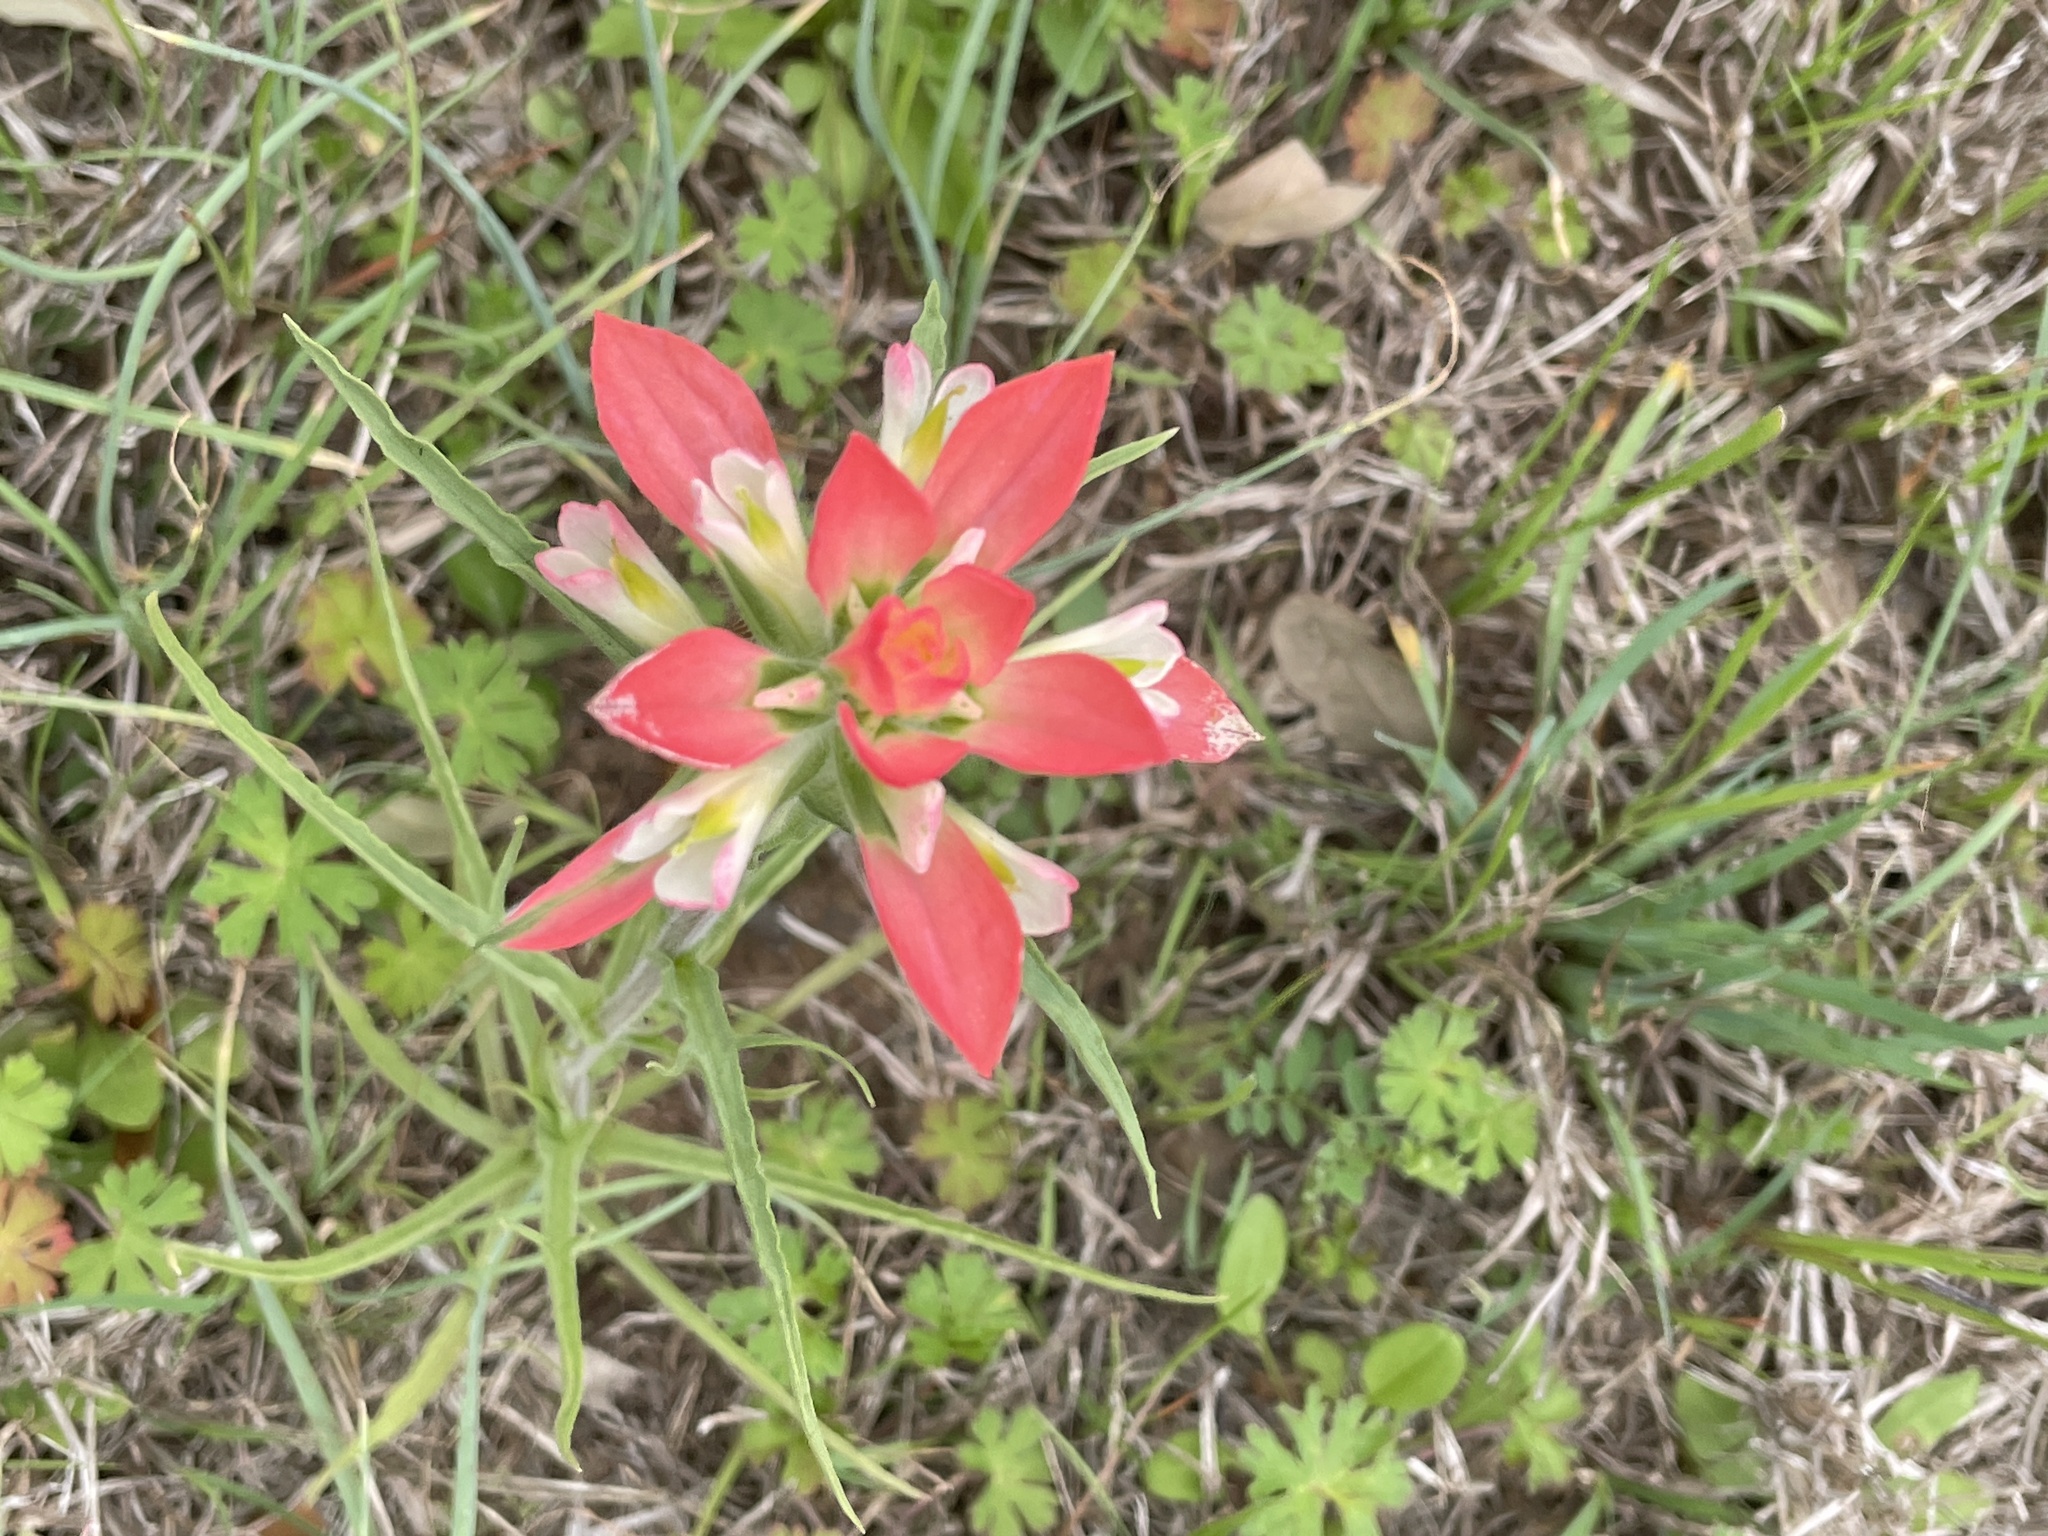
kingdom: Plantae
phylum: Tracheophyta
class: Magnoliopsida
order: Lamiales
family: Orobanchaceae
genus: Castilleja
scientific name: Castilleja indivisa
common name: Texas paintbrush
